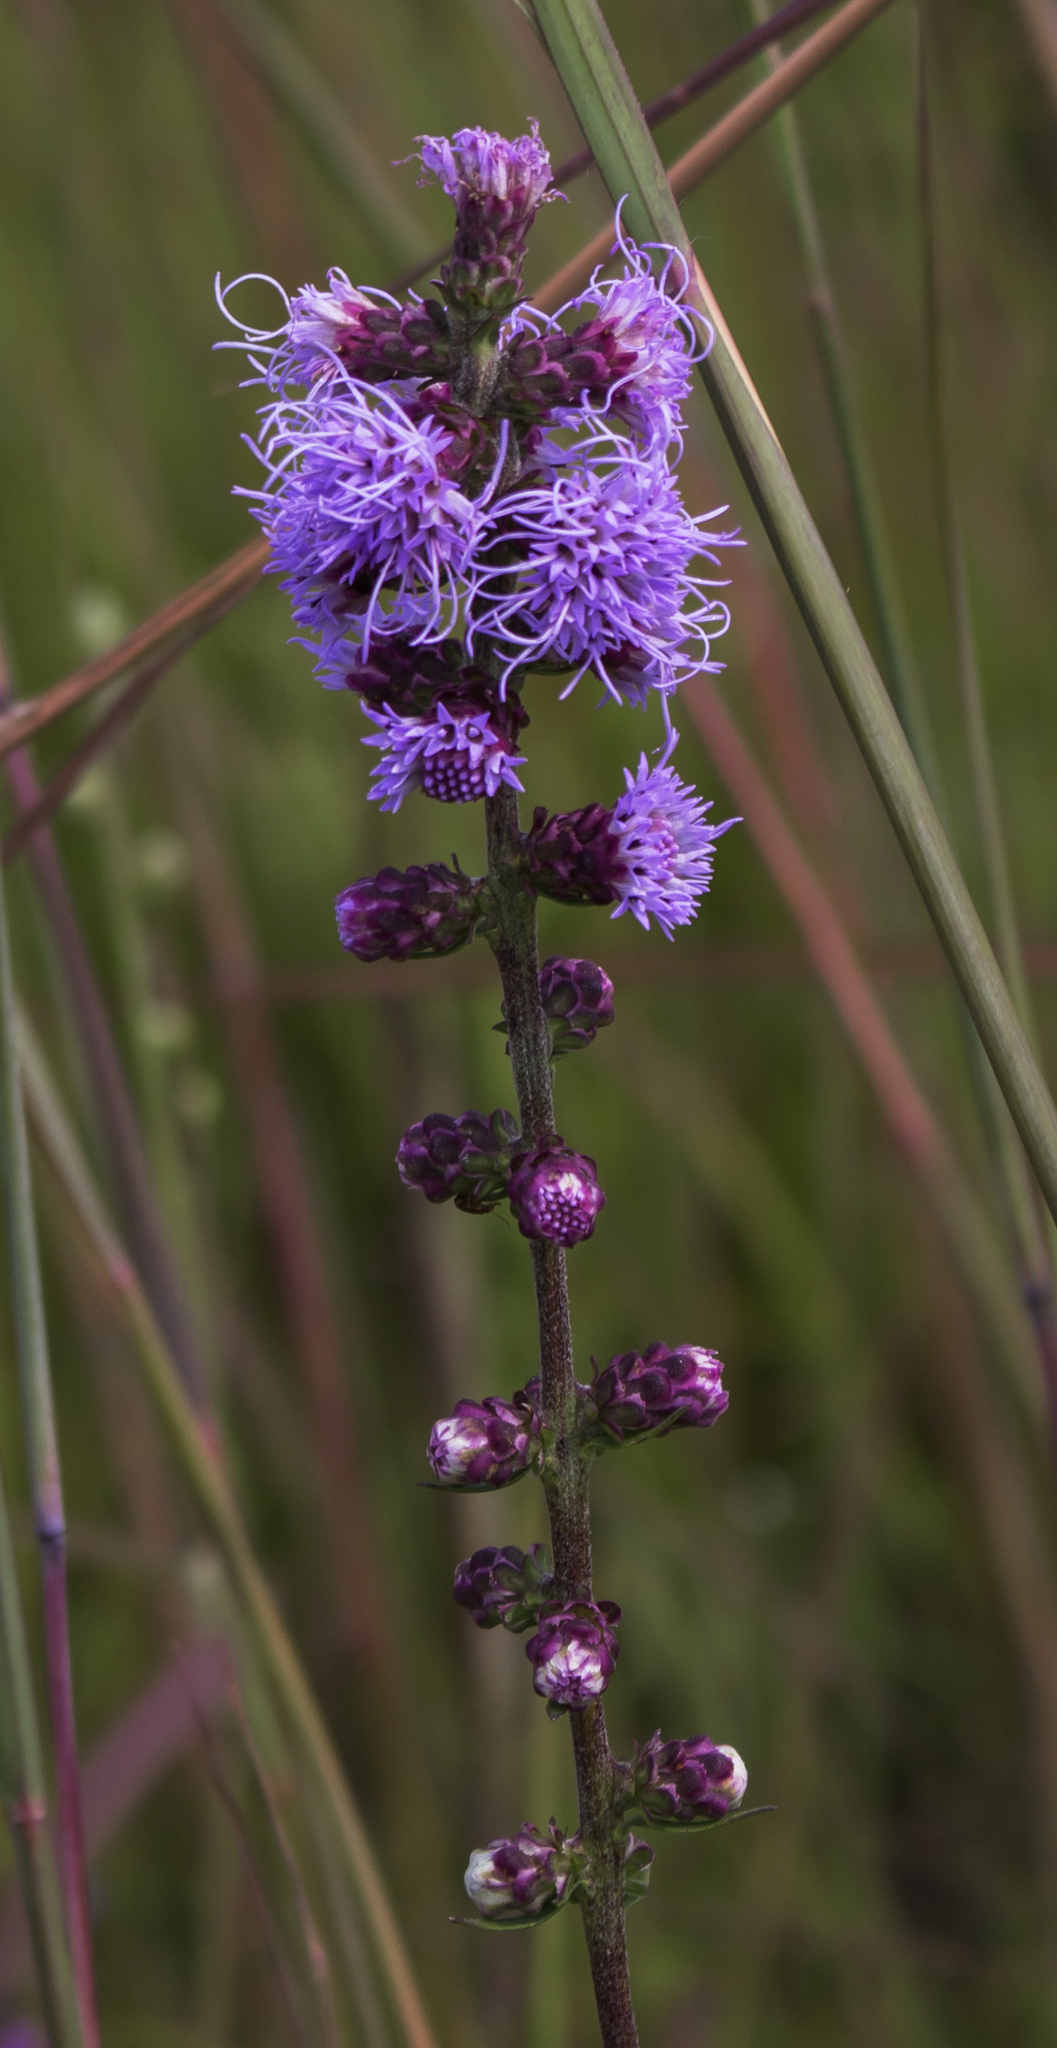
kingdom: Plantae
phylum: Tracheophyta
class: Magnoliopsida
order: Asterales
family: Asteraceae
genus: Liatris
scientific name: Liatris aspera
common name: Lacerate blazing-star
